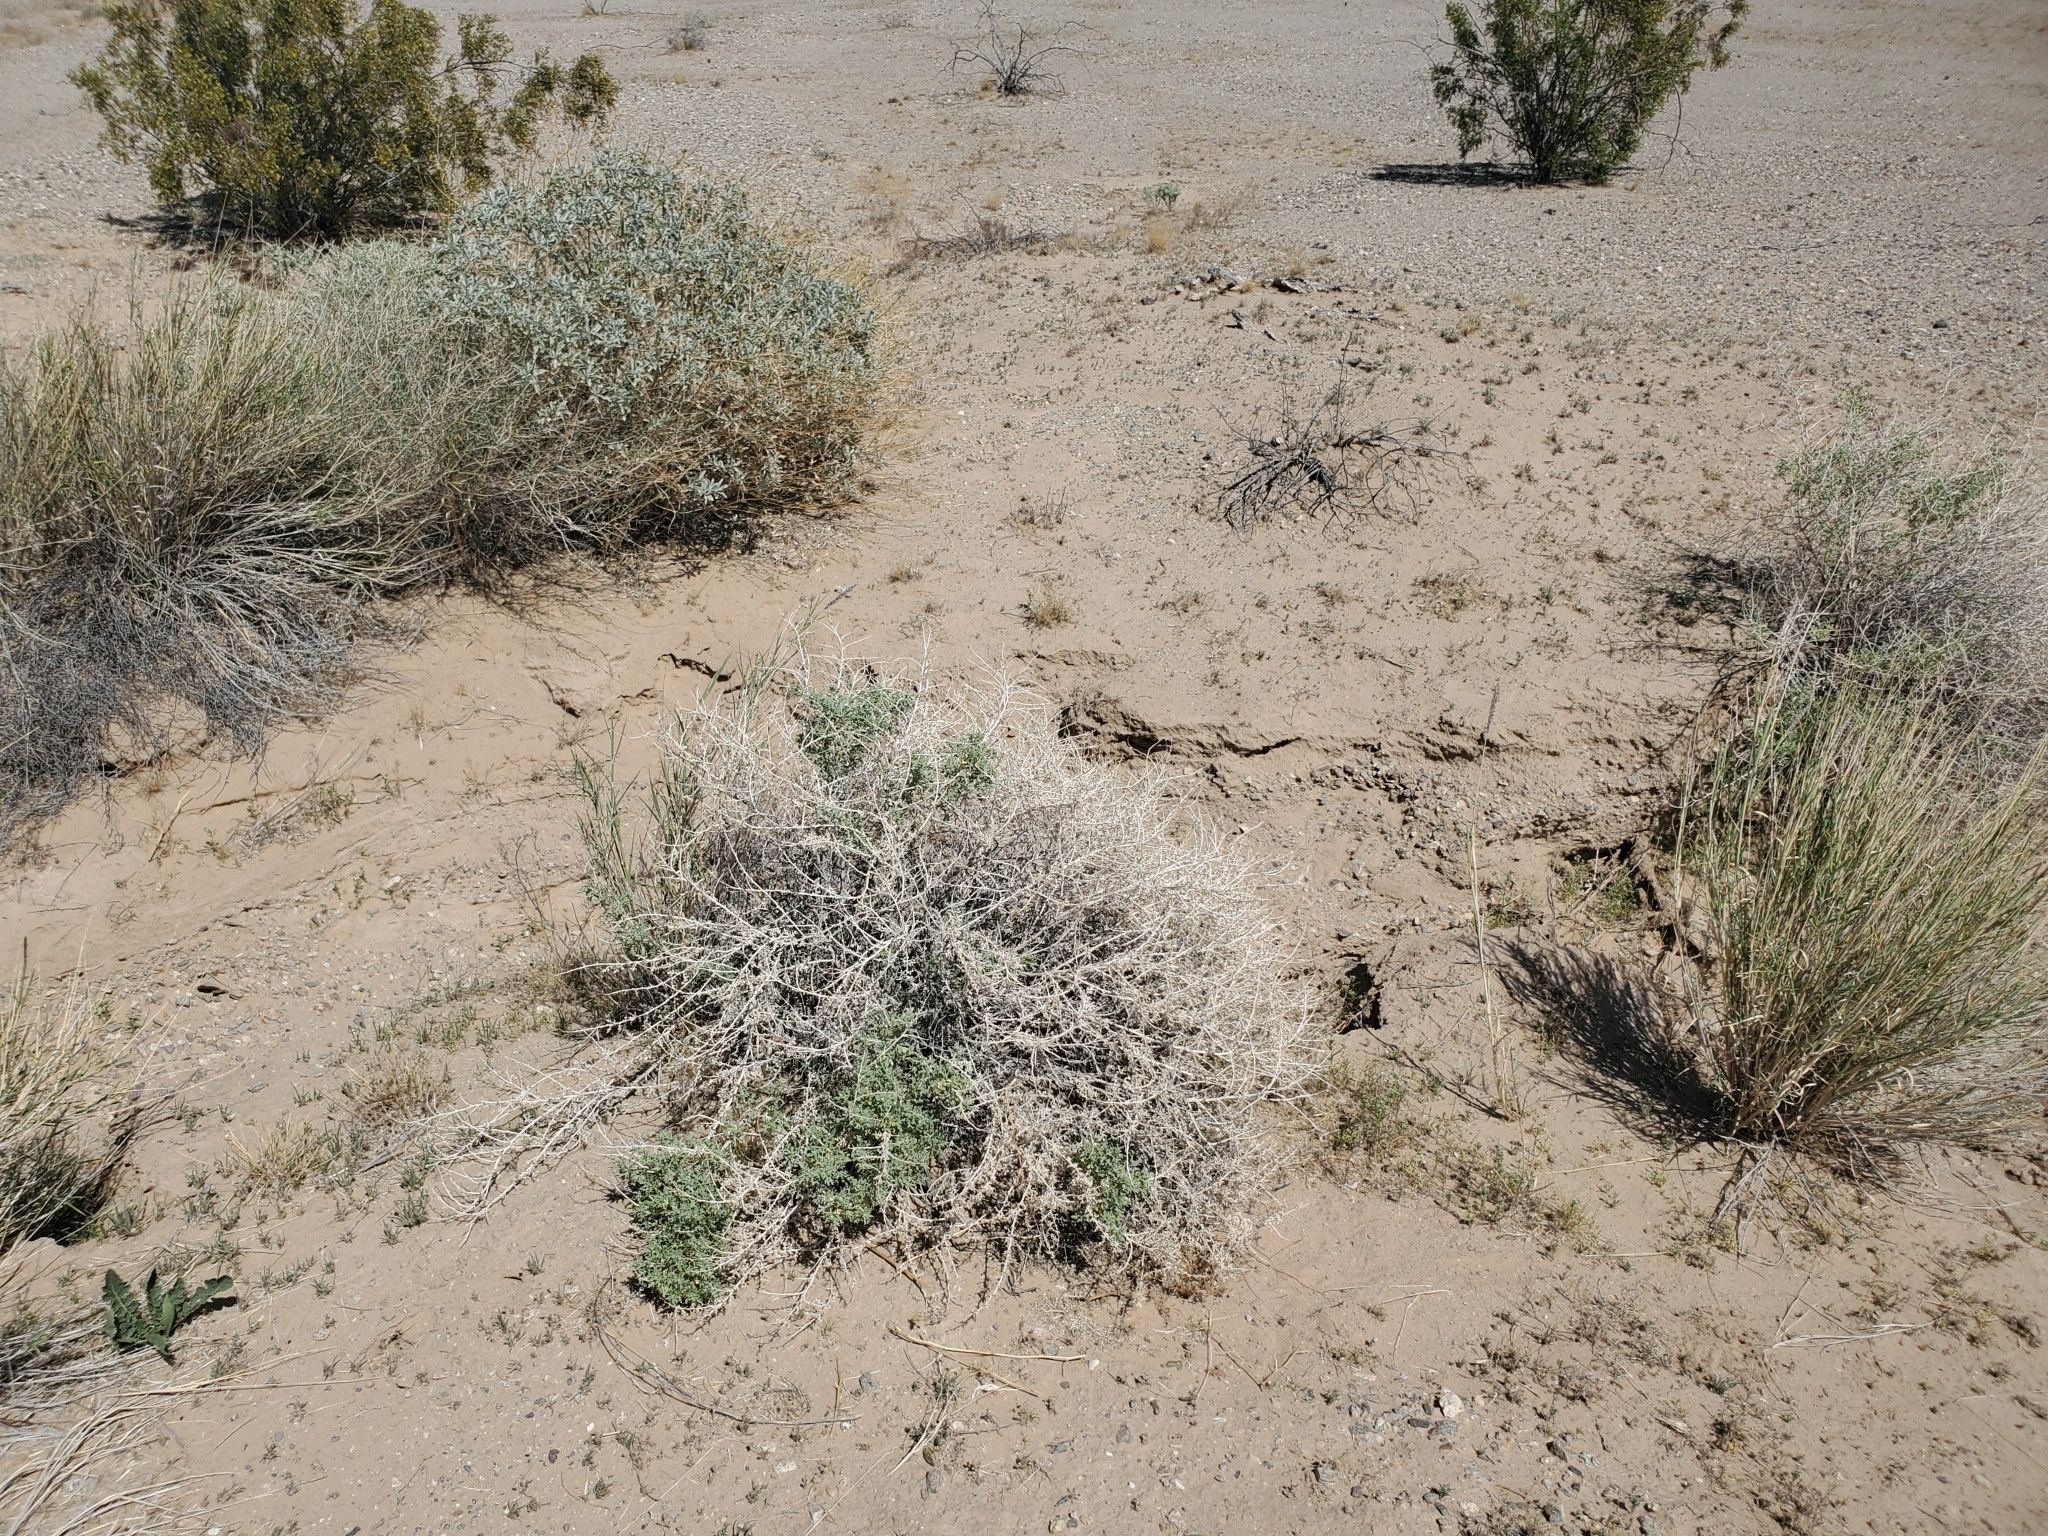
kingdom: Plantae
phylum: Tracheophyta
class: Magnoliopsida
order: Asterales
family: Asteraceae
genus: Ambrosia
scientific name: Ambrosia dumosa
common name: Bur-sage
